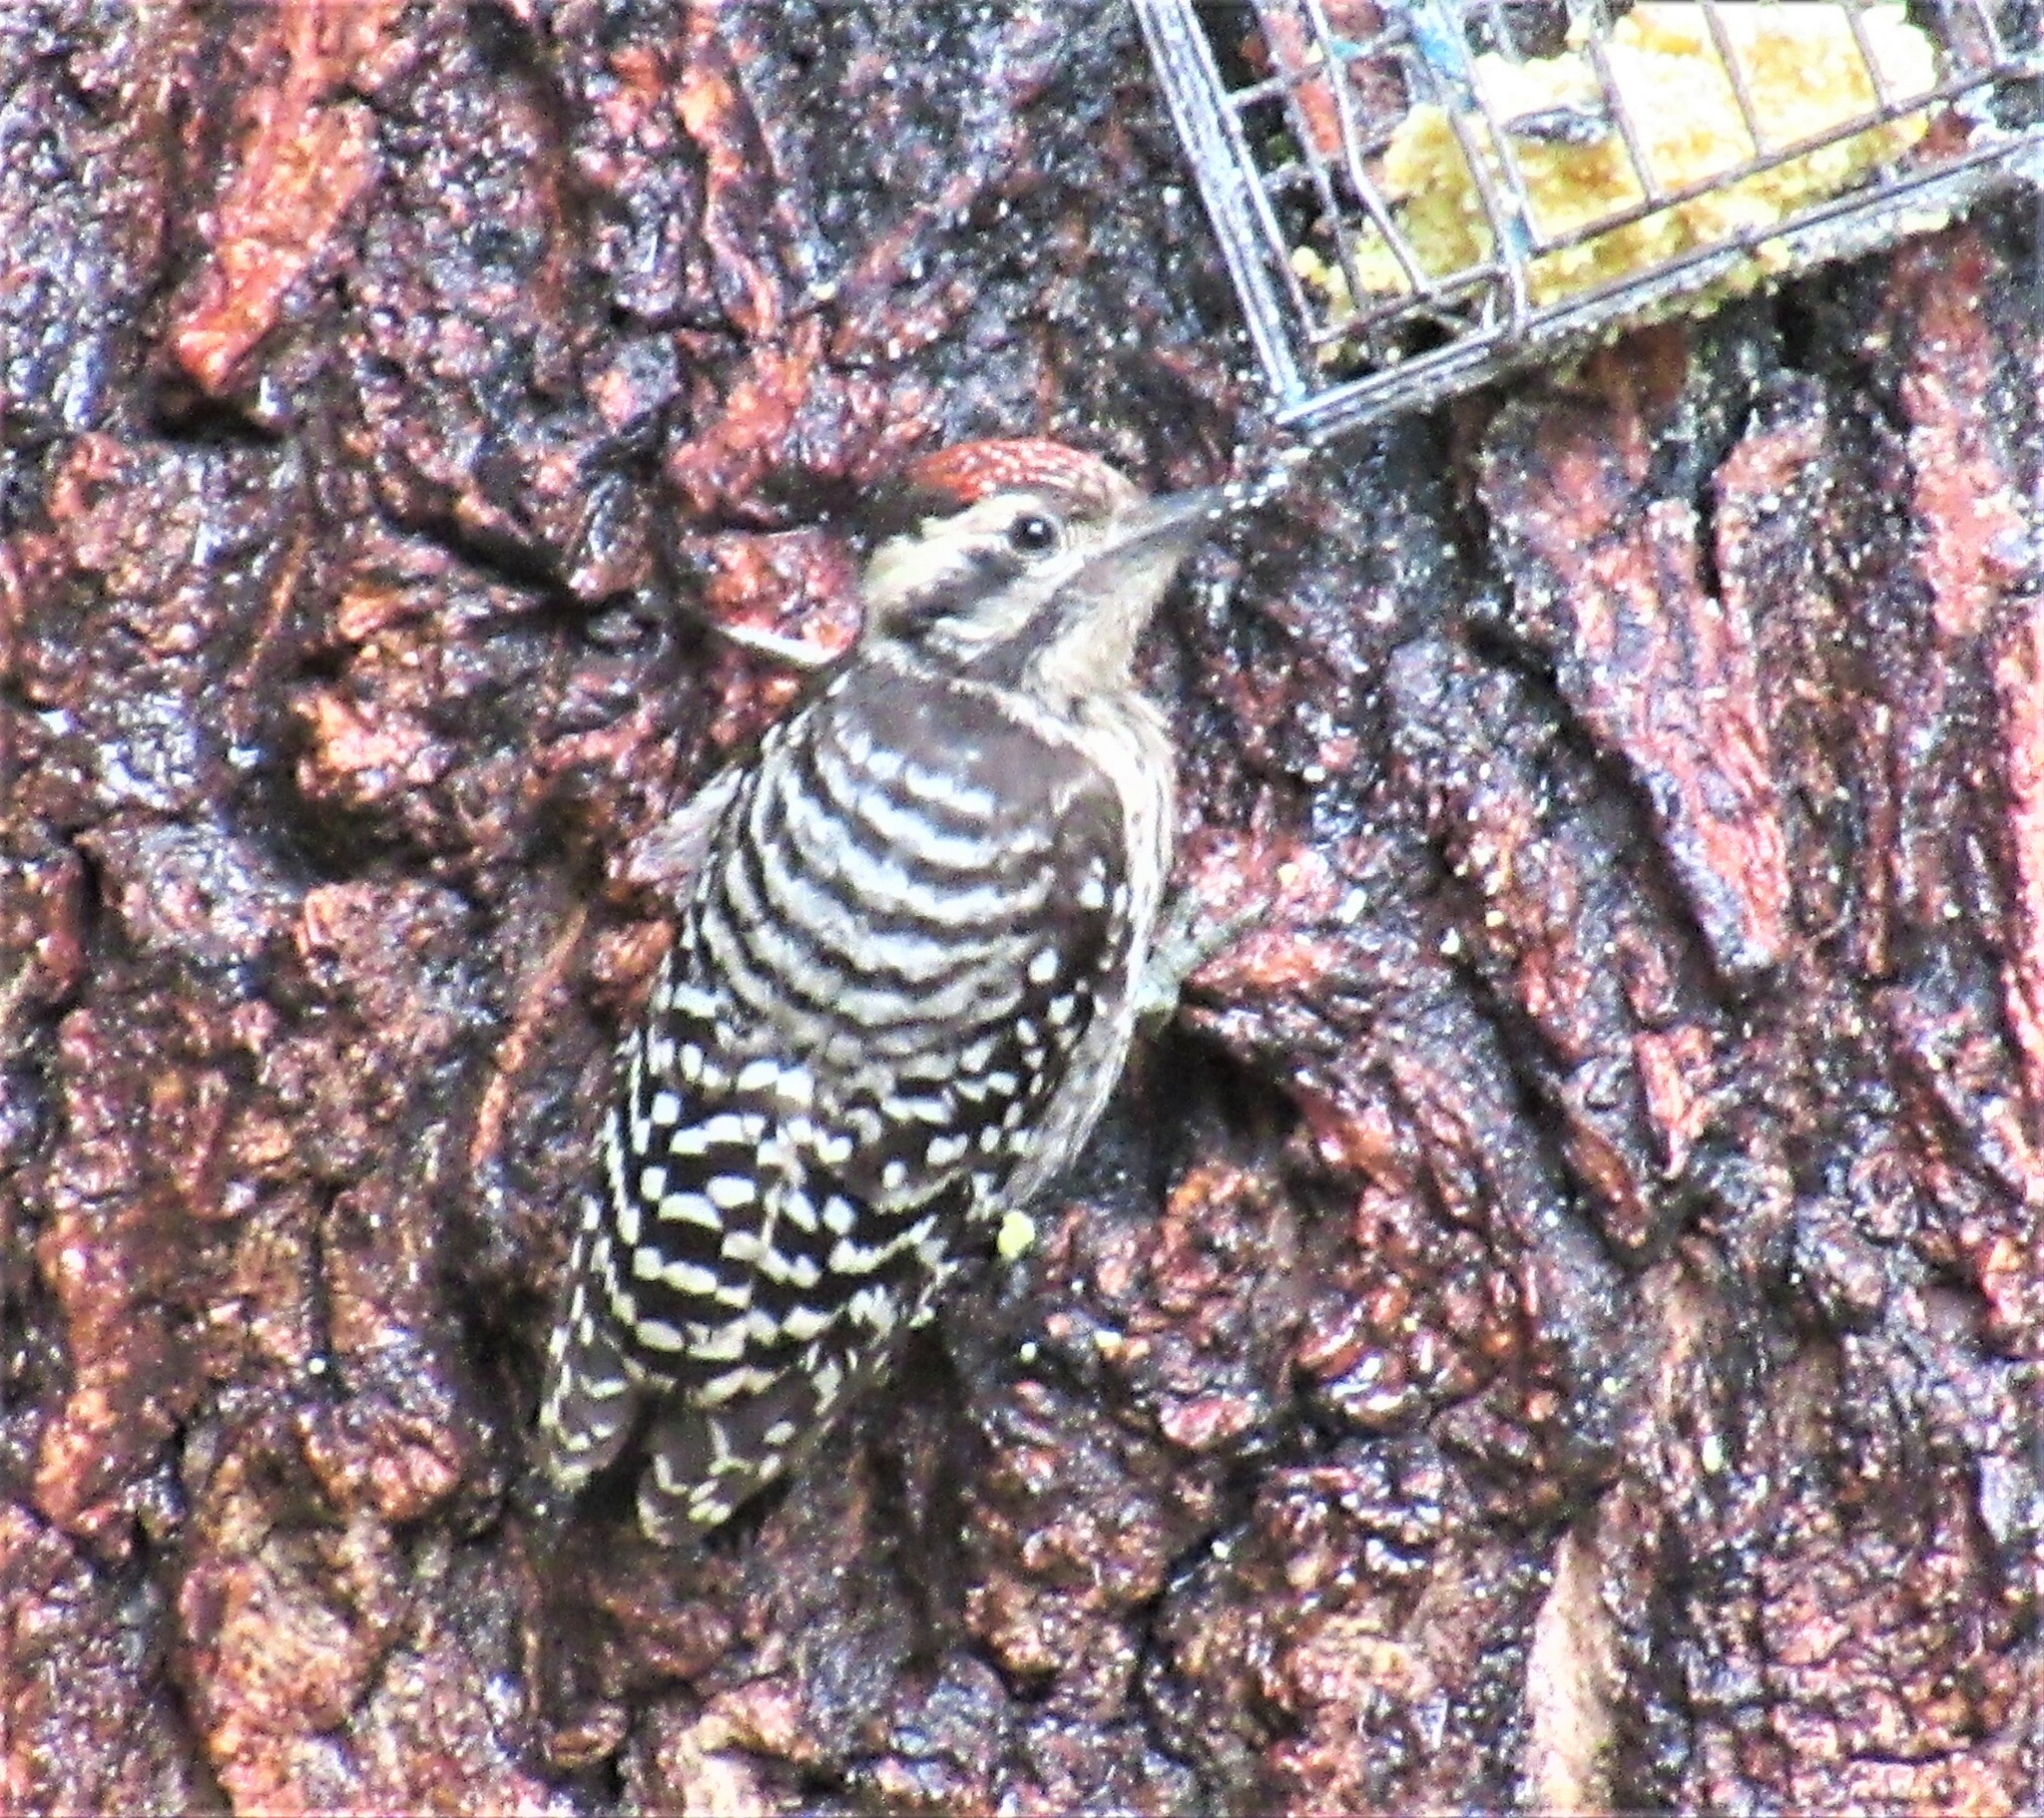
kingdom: Animalia
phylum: Chordata
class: Aves
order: Piciformes
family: Picidae
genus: Dryobates
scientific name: Dryobates scalaris
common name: Ladder-backed woodpecker
